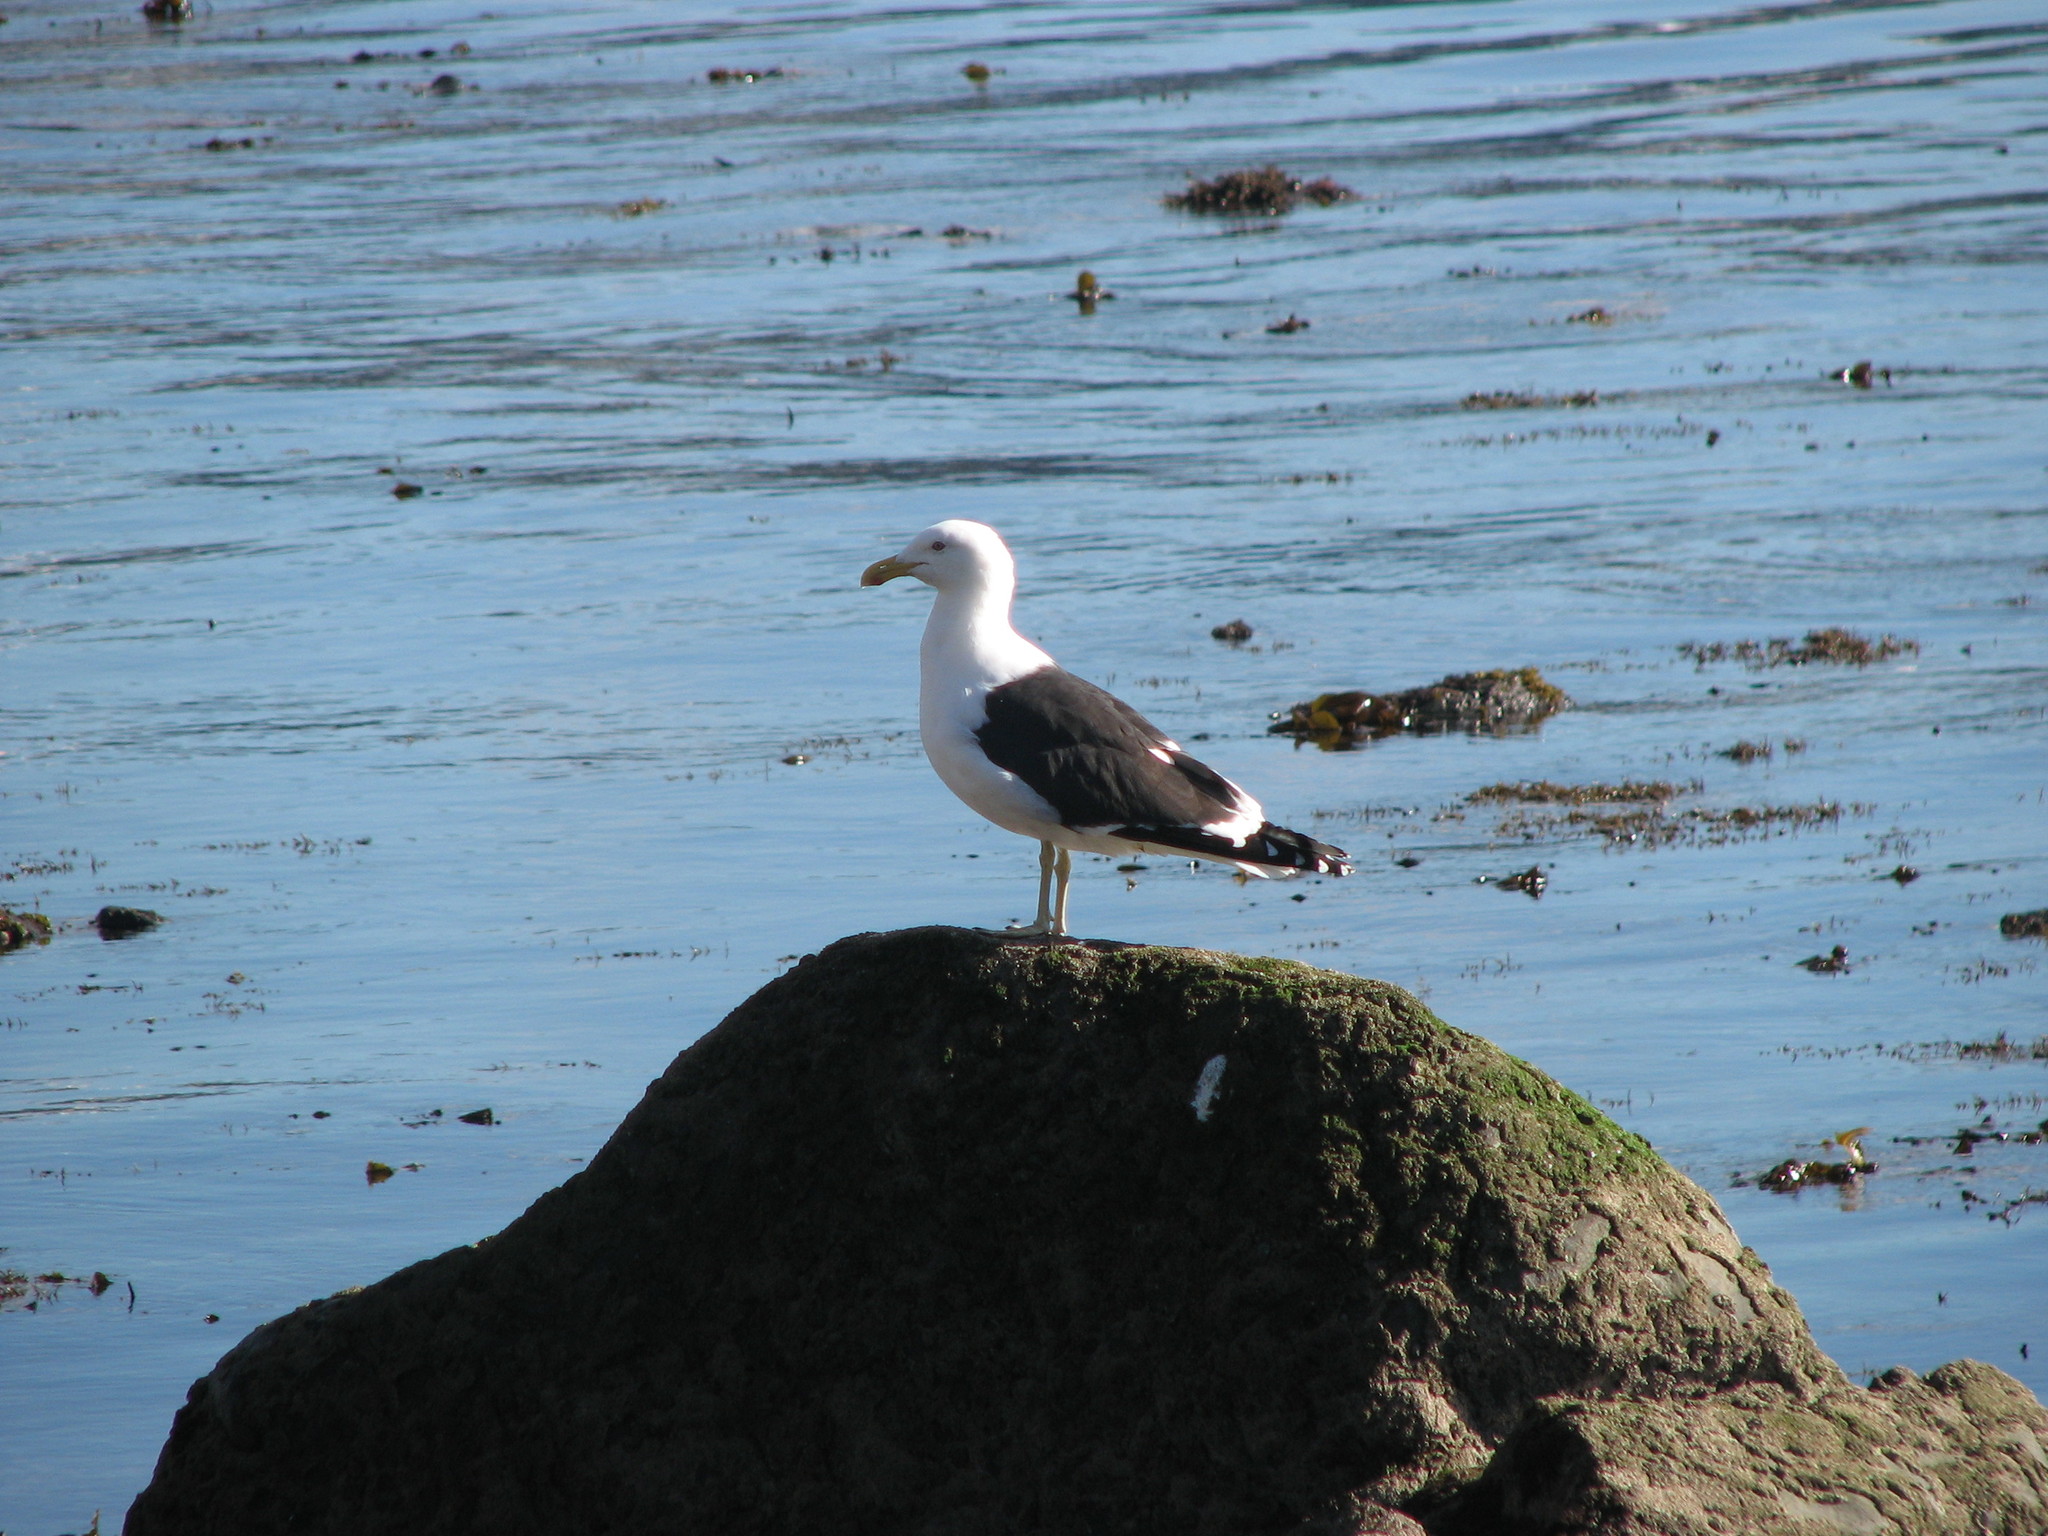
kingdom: Animalia
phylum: Chordata
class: Aves
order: Charadriiformes
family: Laridae
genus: Larus
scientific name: Larus dominicanus
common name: Kelp gull
